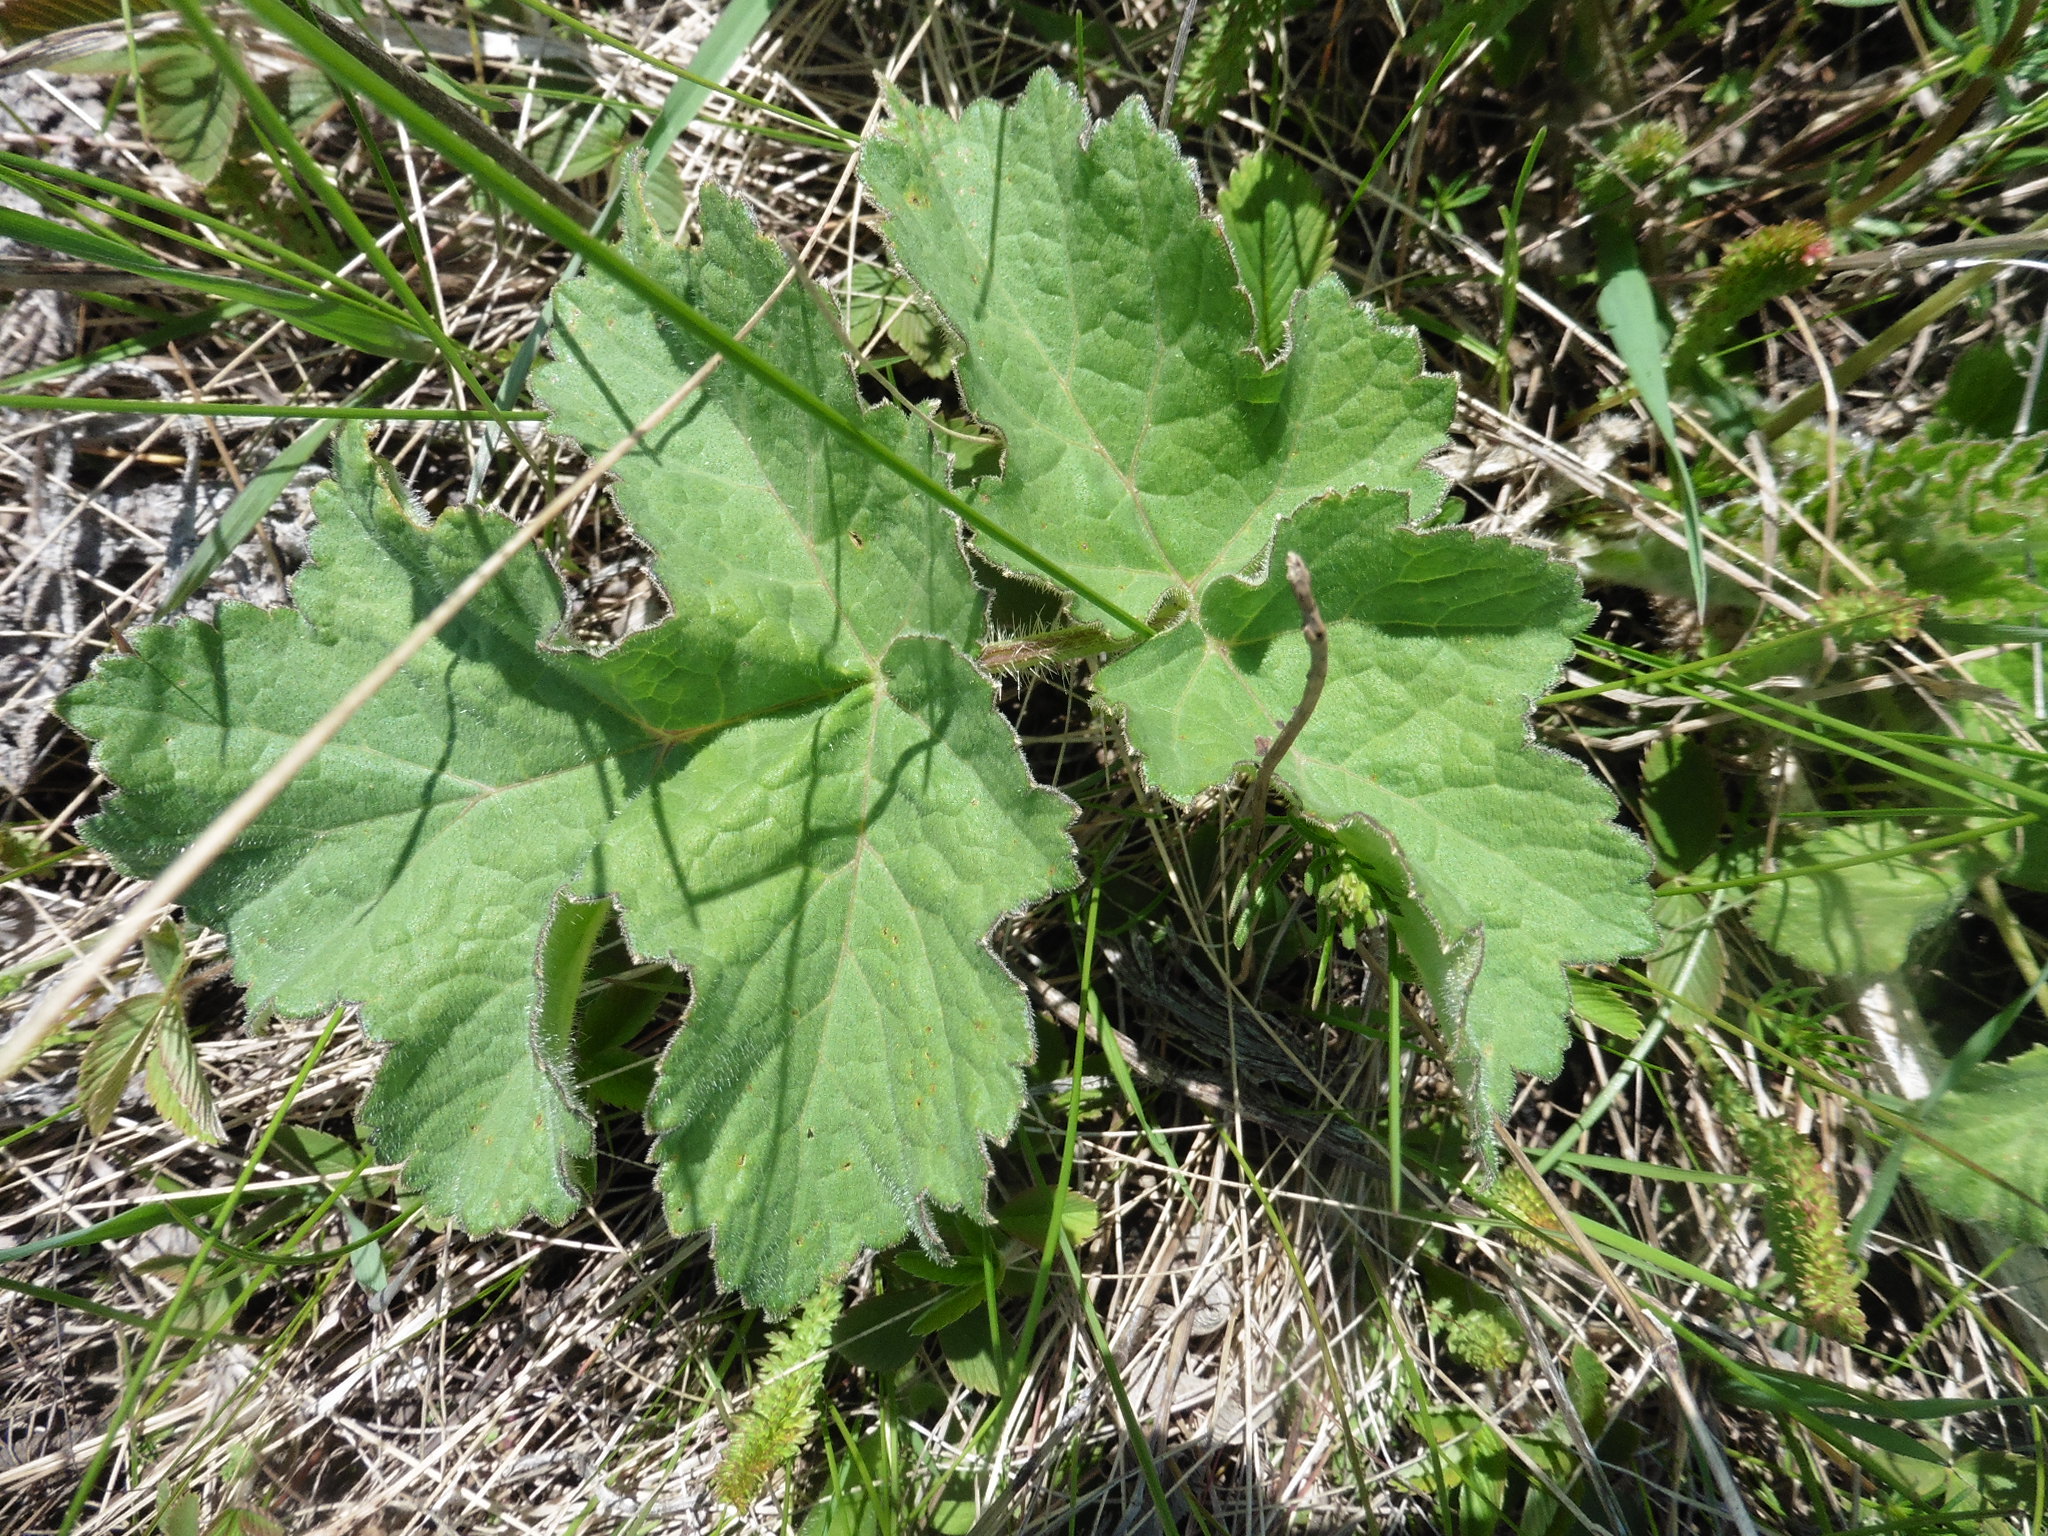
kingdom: Plantae
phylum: Tracheophyta
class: Magnoliopsida
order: Apiales
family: Apiaceae
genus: Heracleum
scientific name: Heracleum sphondylium
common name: Hogweed
